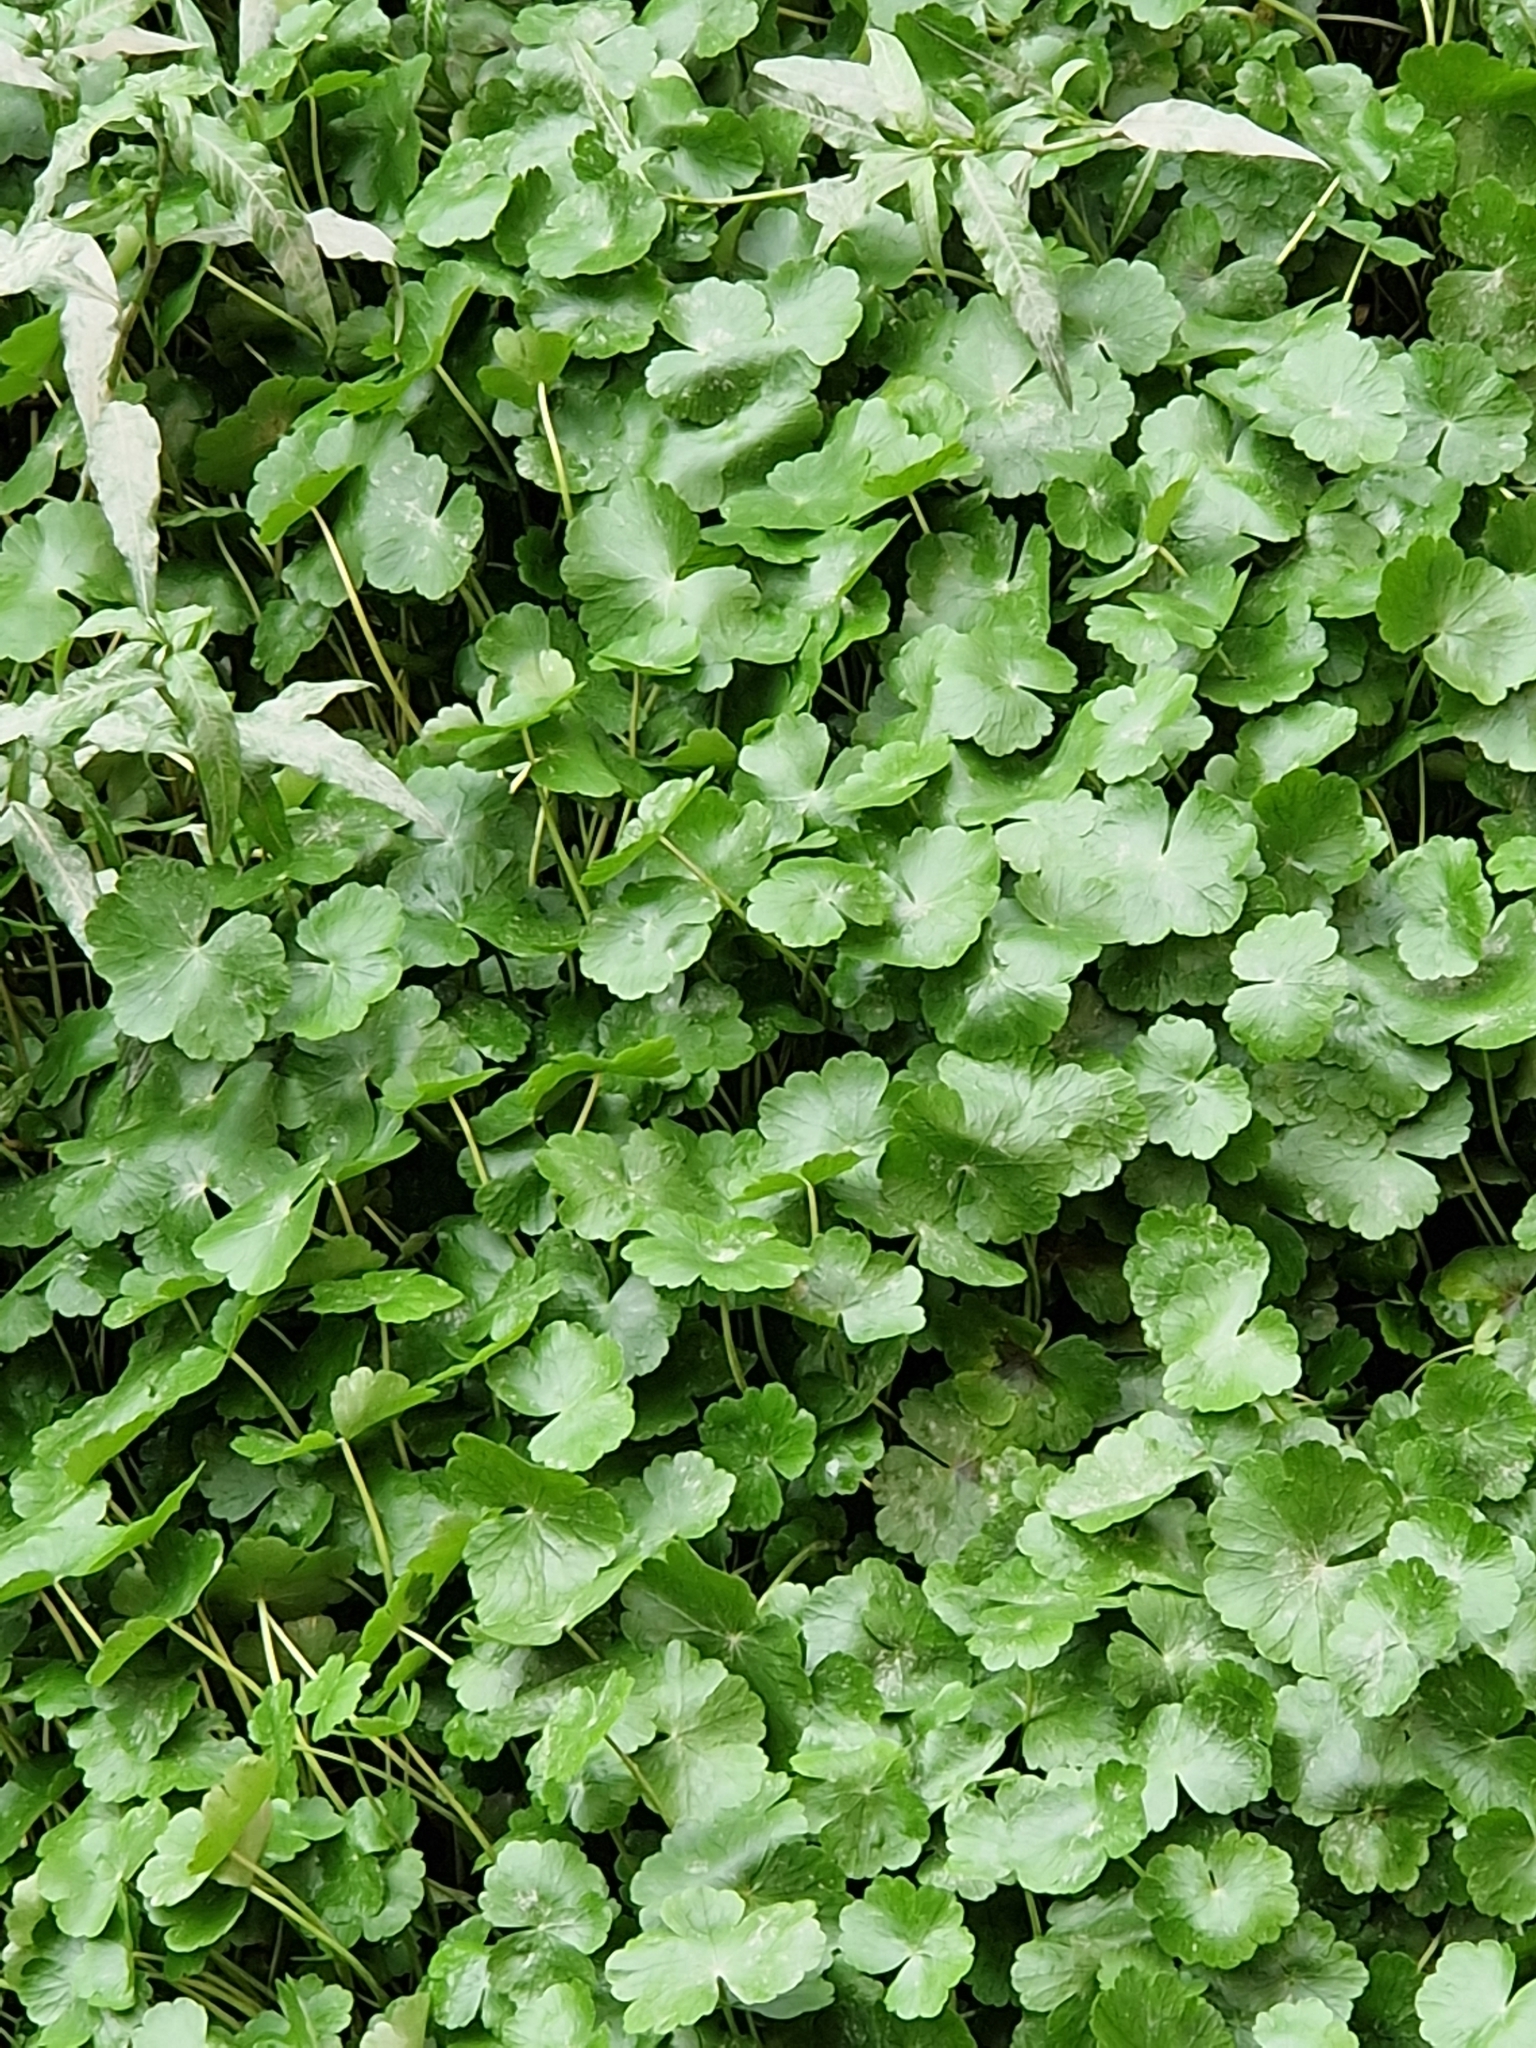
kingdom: Plantae
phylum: Tracheophyta
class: Magnoliopsida
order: Apiales
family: Araliaceae
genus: Hydrocotyle
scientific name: Hydrocotyle ranunculoides
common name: Floating pennywort
